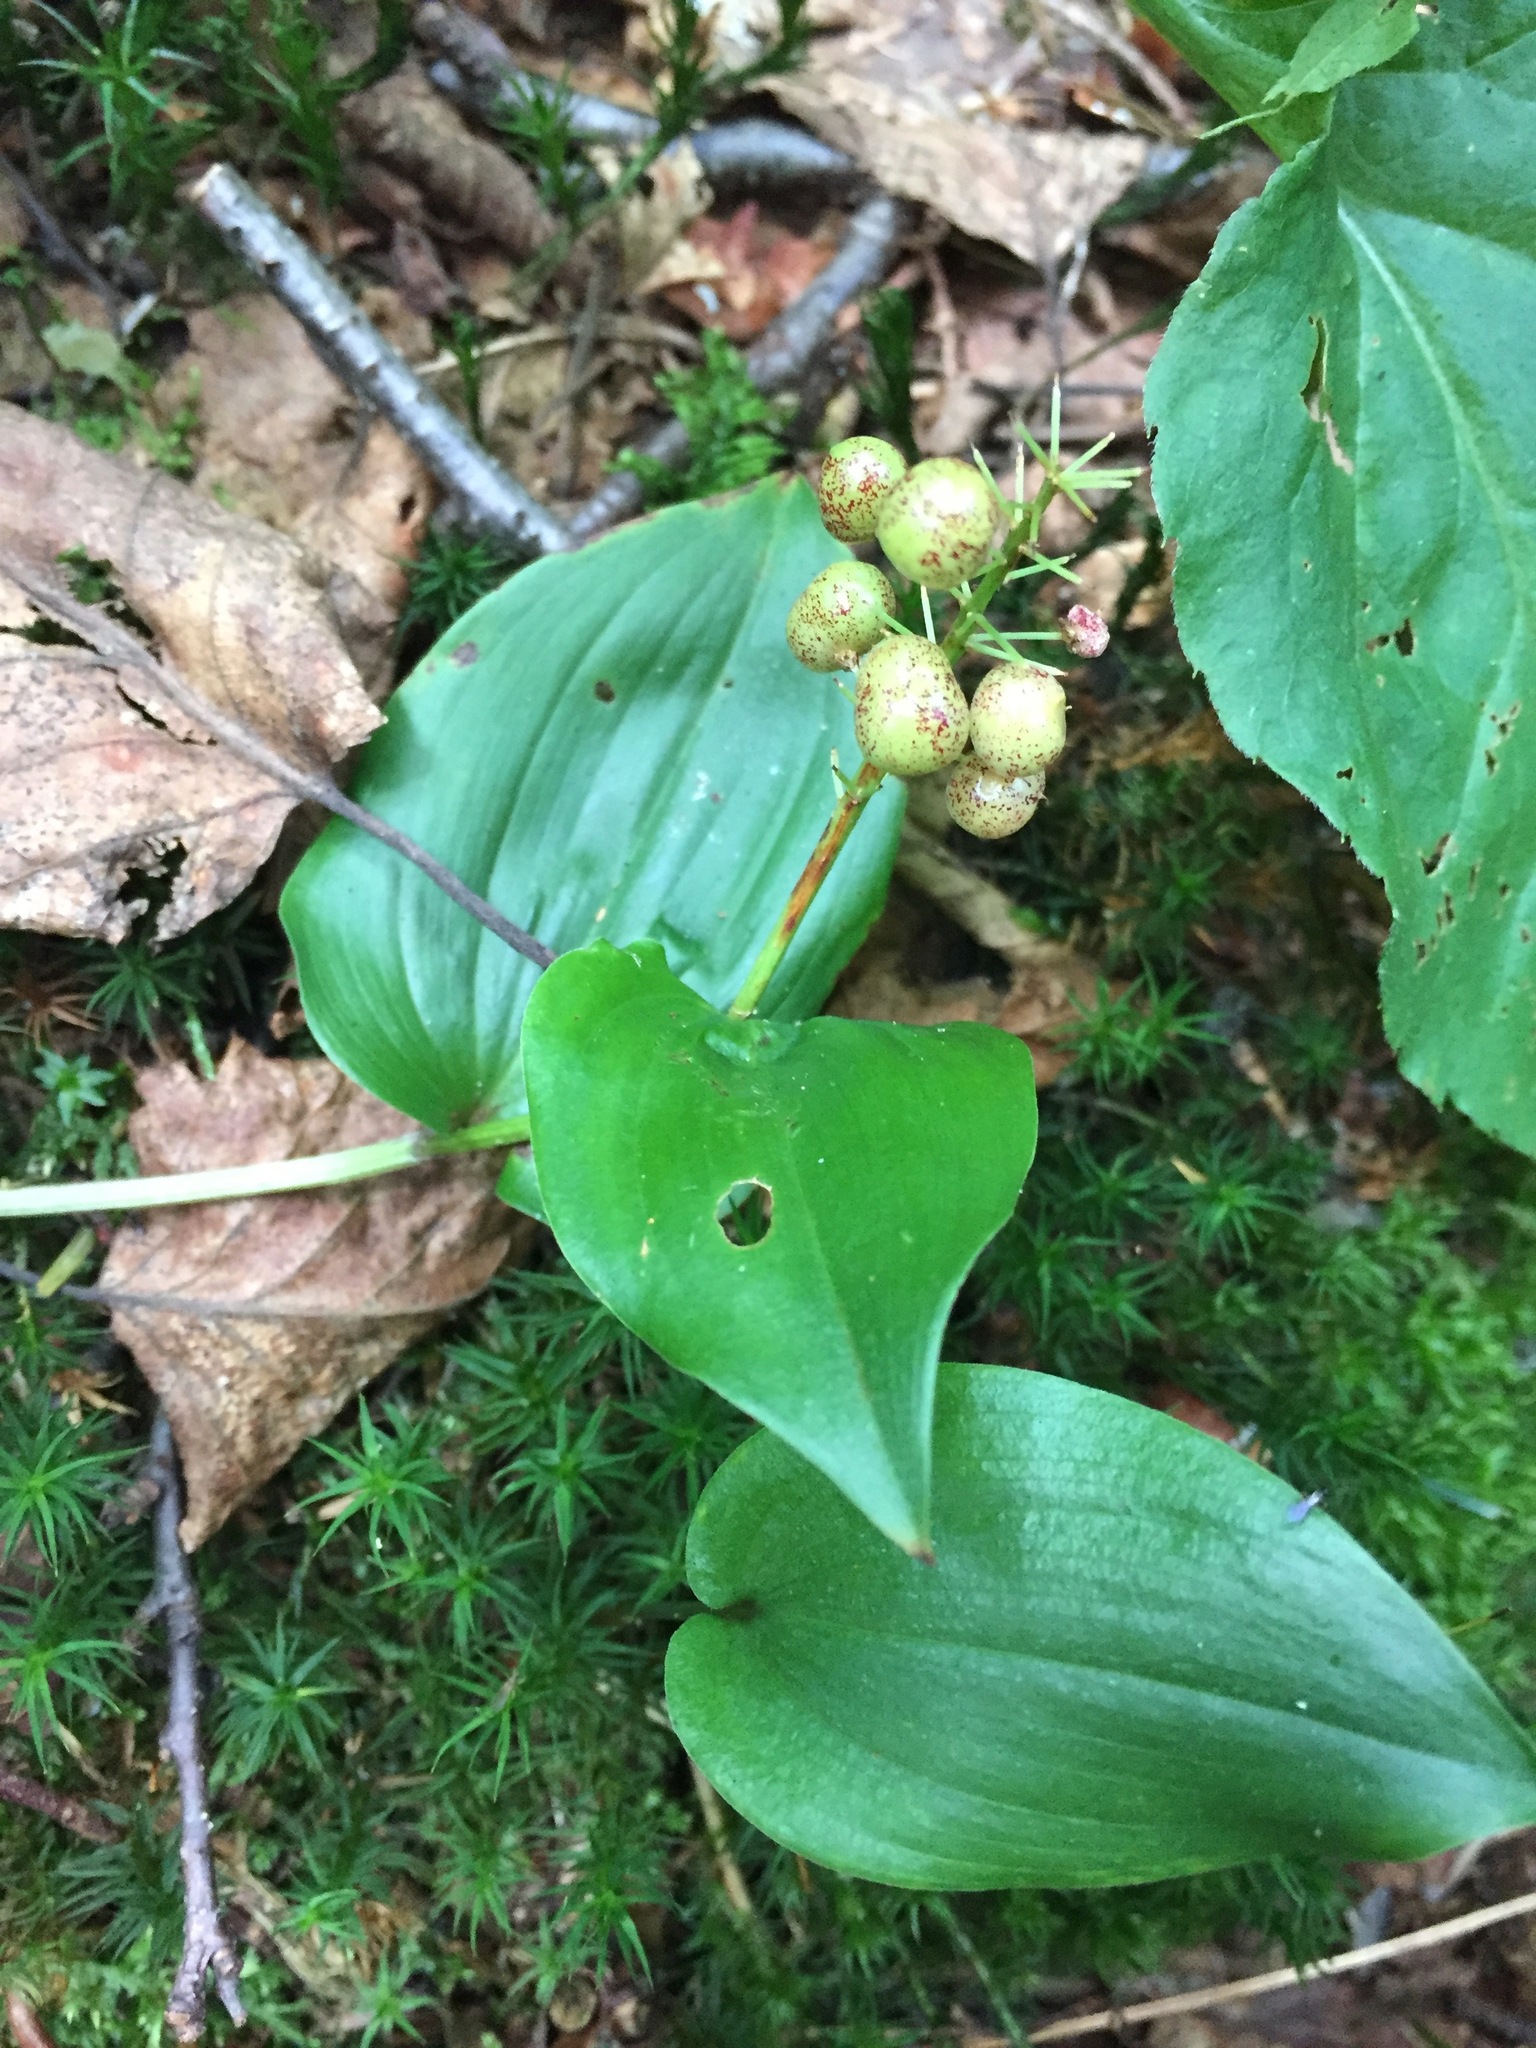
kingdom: Plantae
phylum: Tracheophyta
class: Liliopsida
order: Asparagales
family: Asparagaceae
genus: Maianthemum
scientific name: Maianthemum canadense
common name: False lily-of-the-valley
